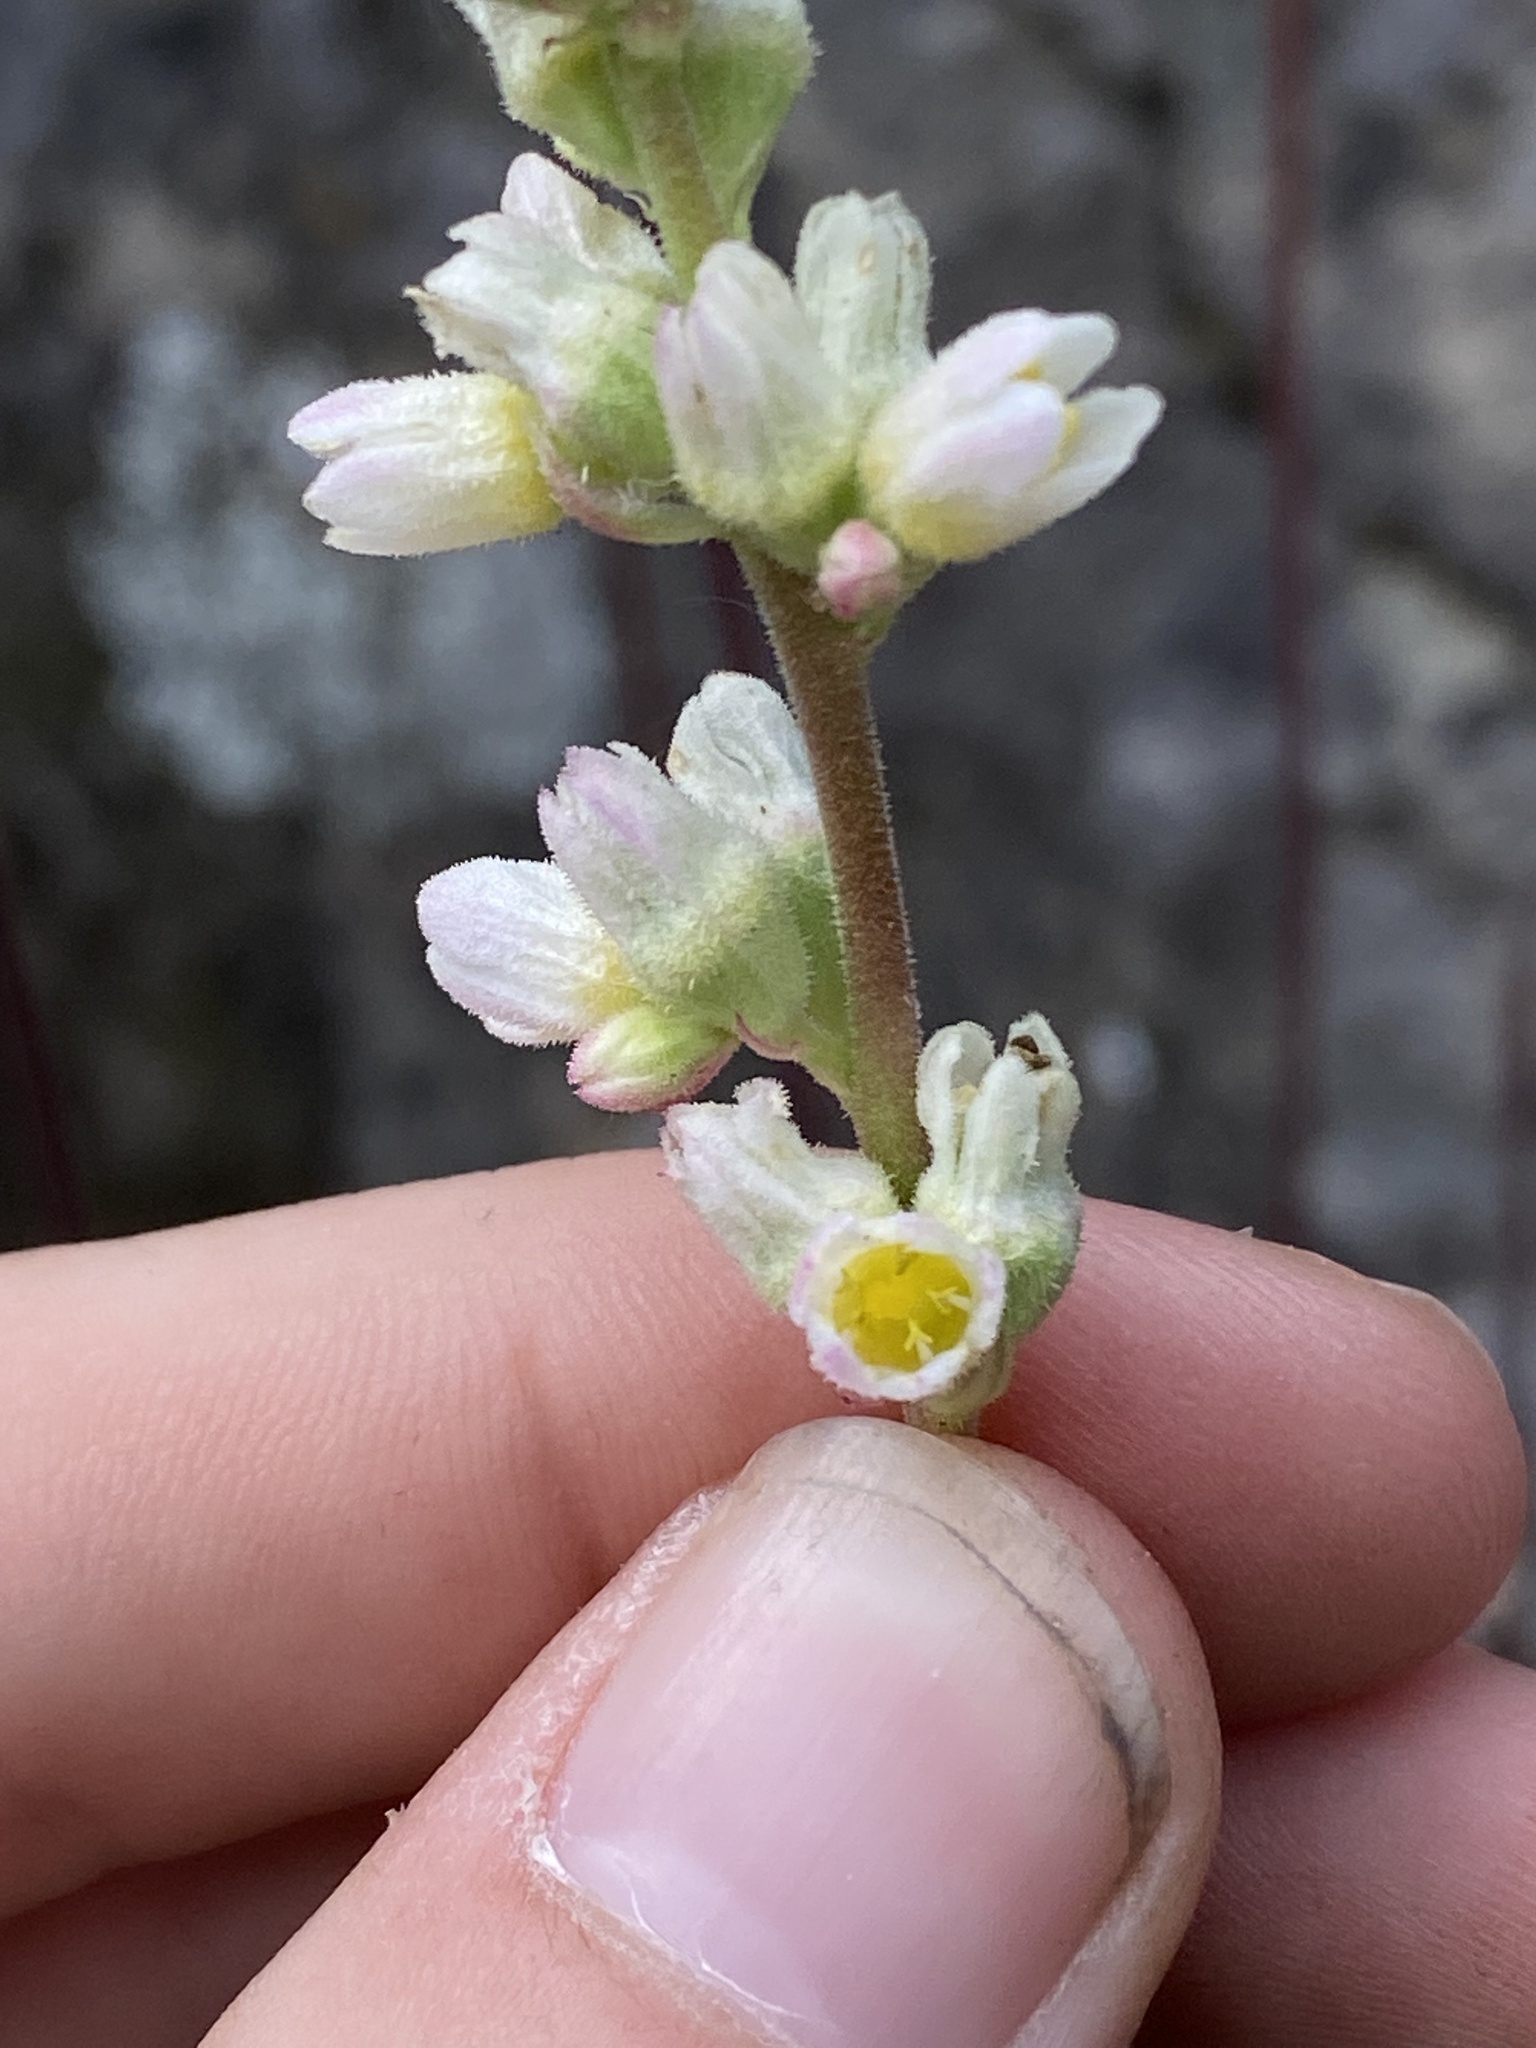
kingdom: Plantae
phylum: Tracheophyta
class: Magnoliopsida
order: Saxifragales
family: Saxifragaceae
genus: Heuchera
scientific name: Heuchera cylindrica
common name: Mat alumroot
